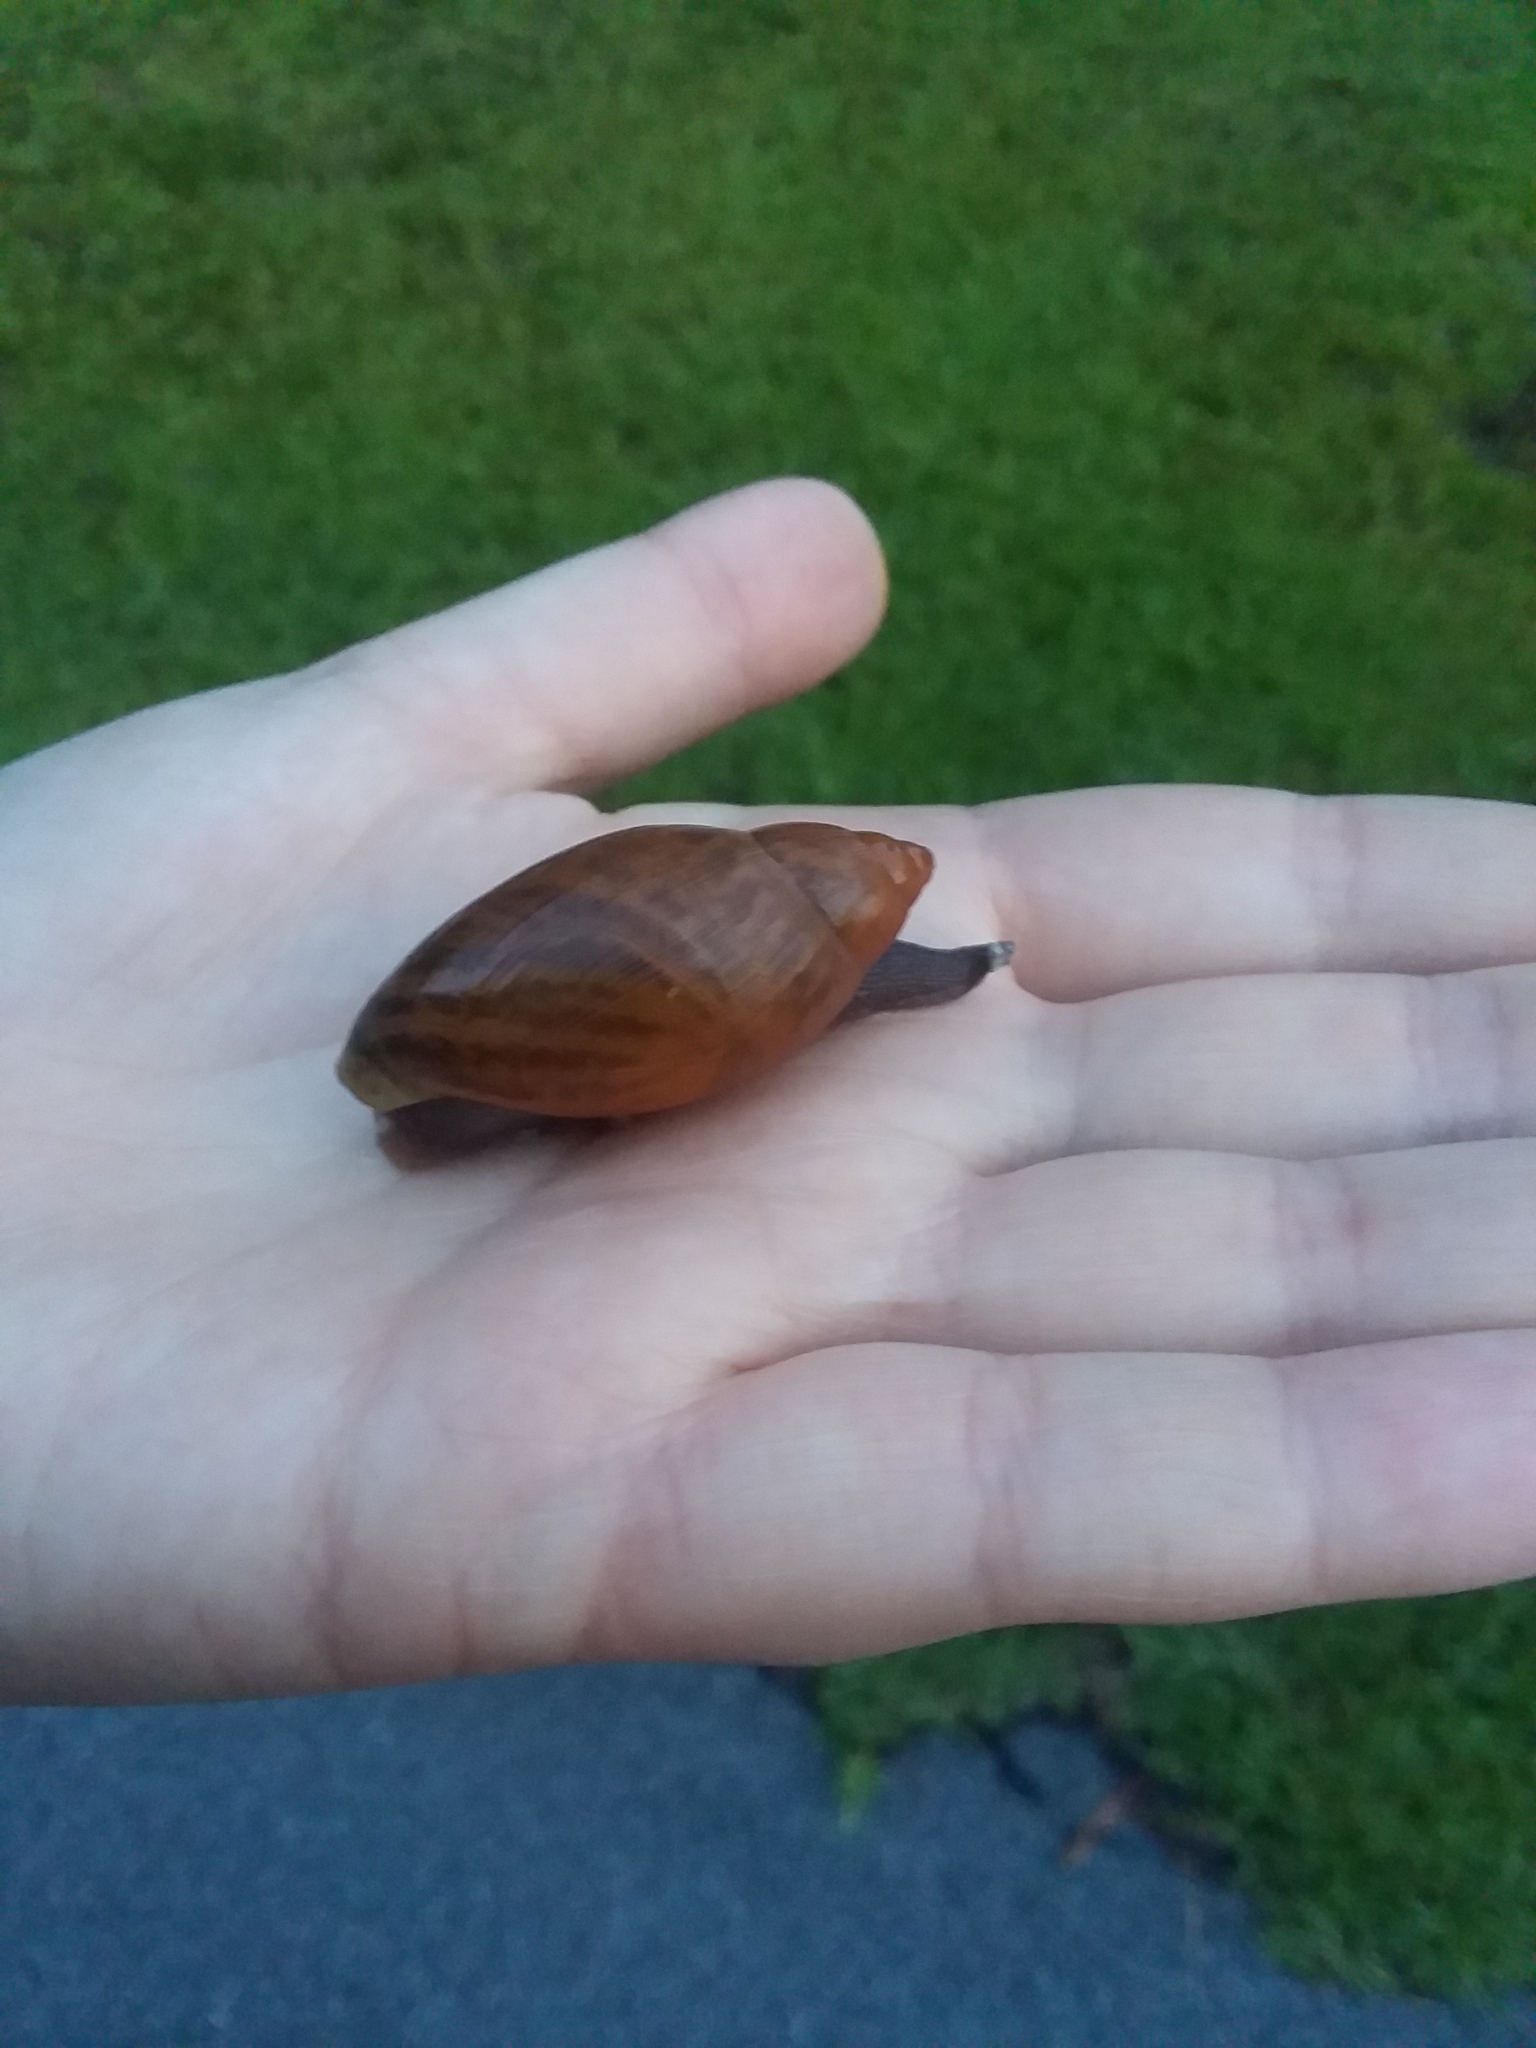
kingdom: Animalia
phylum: Mollusca
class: Gastropoda
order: Stylommatophora
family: Spiraxidae
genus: Euglandina
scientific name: Euglandina rosea
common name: Rosy wolfsnail
